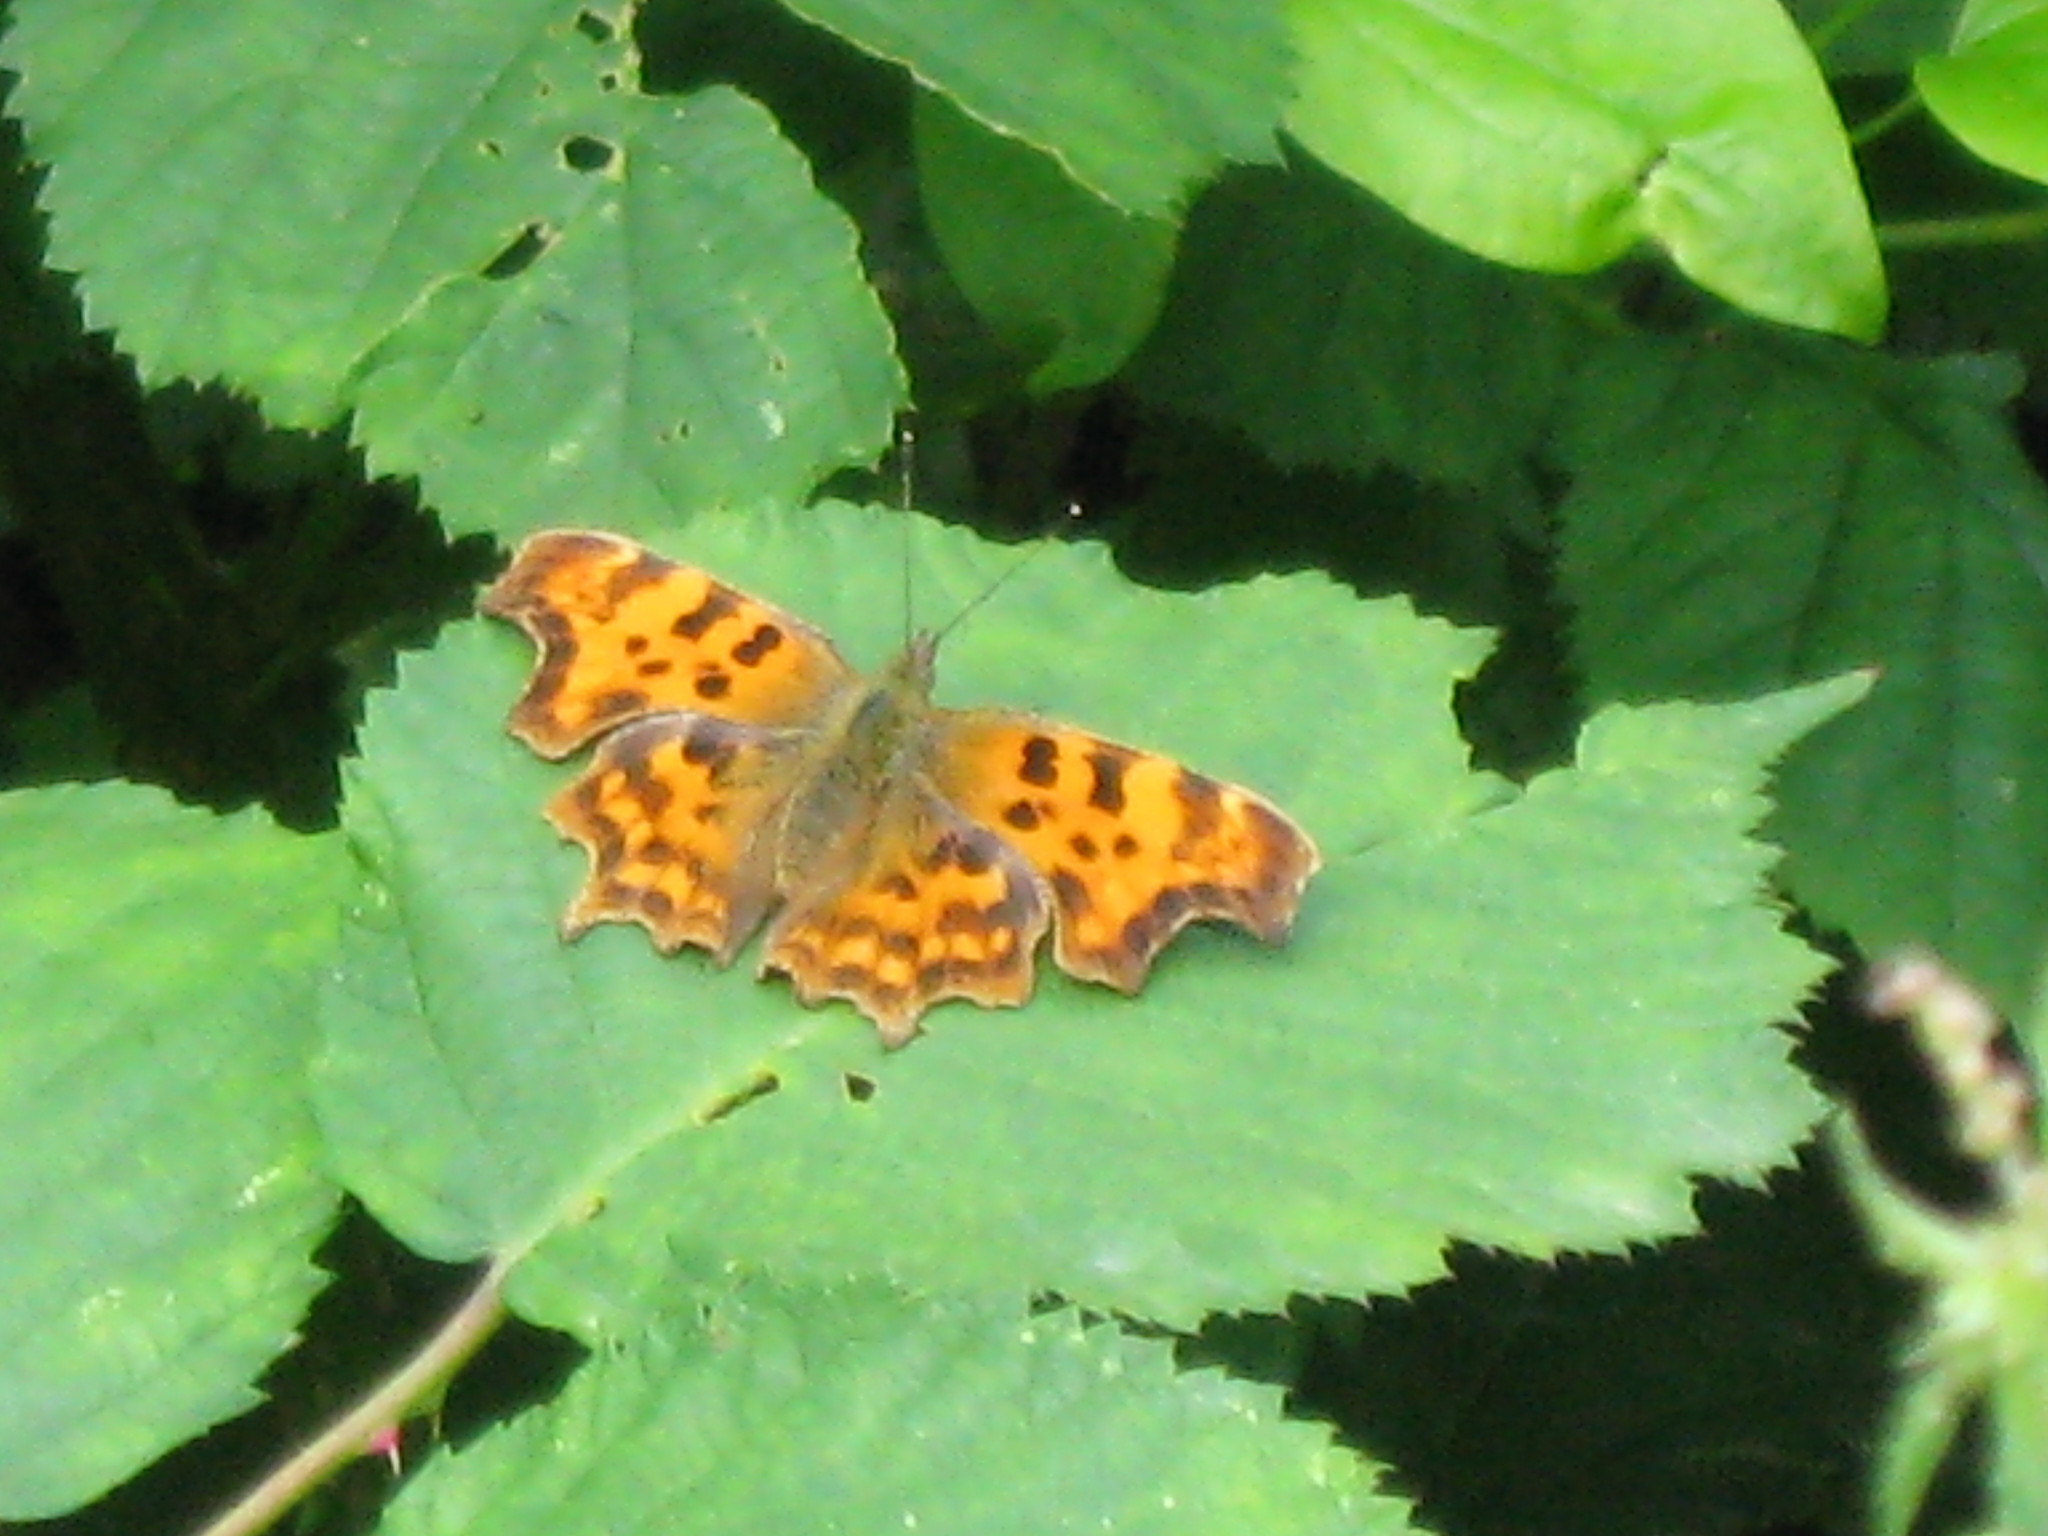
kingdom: Animalia
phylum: Arthropoda
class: Insecta
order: Lepidoptera
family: Nymphalidae
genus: Polygonia
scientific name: Polygonia c-album
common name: Comma
